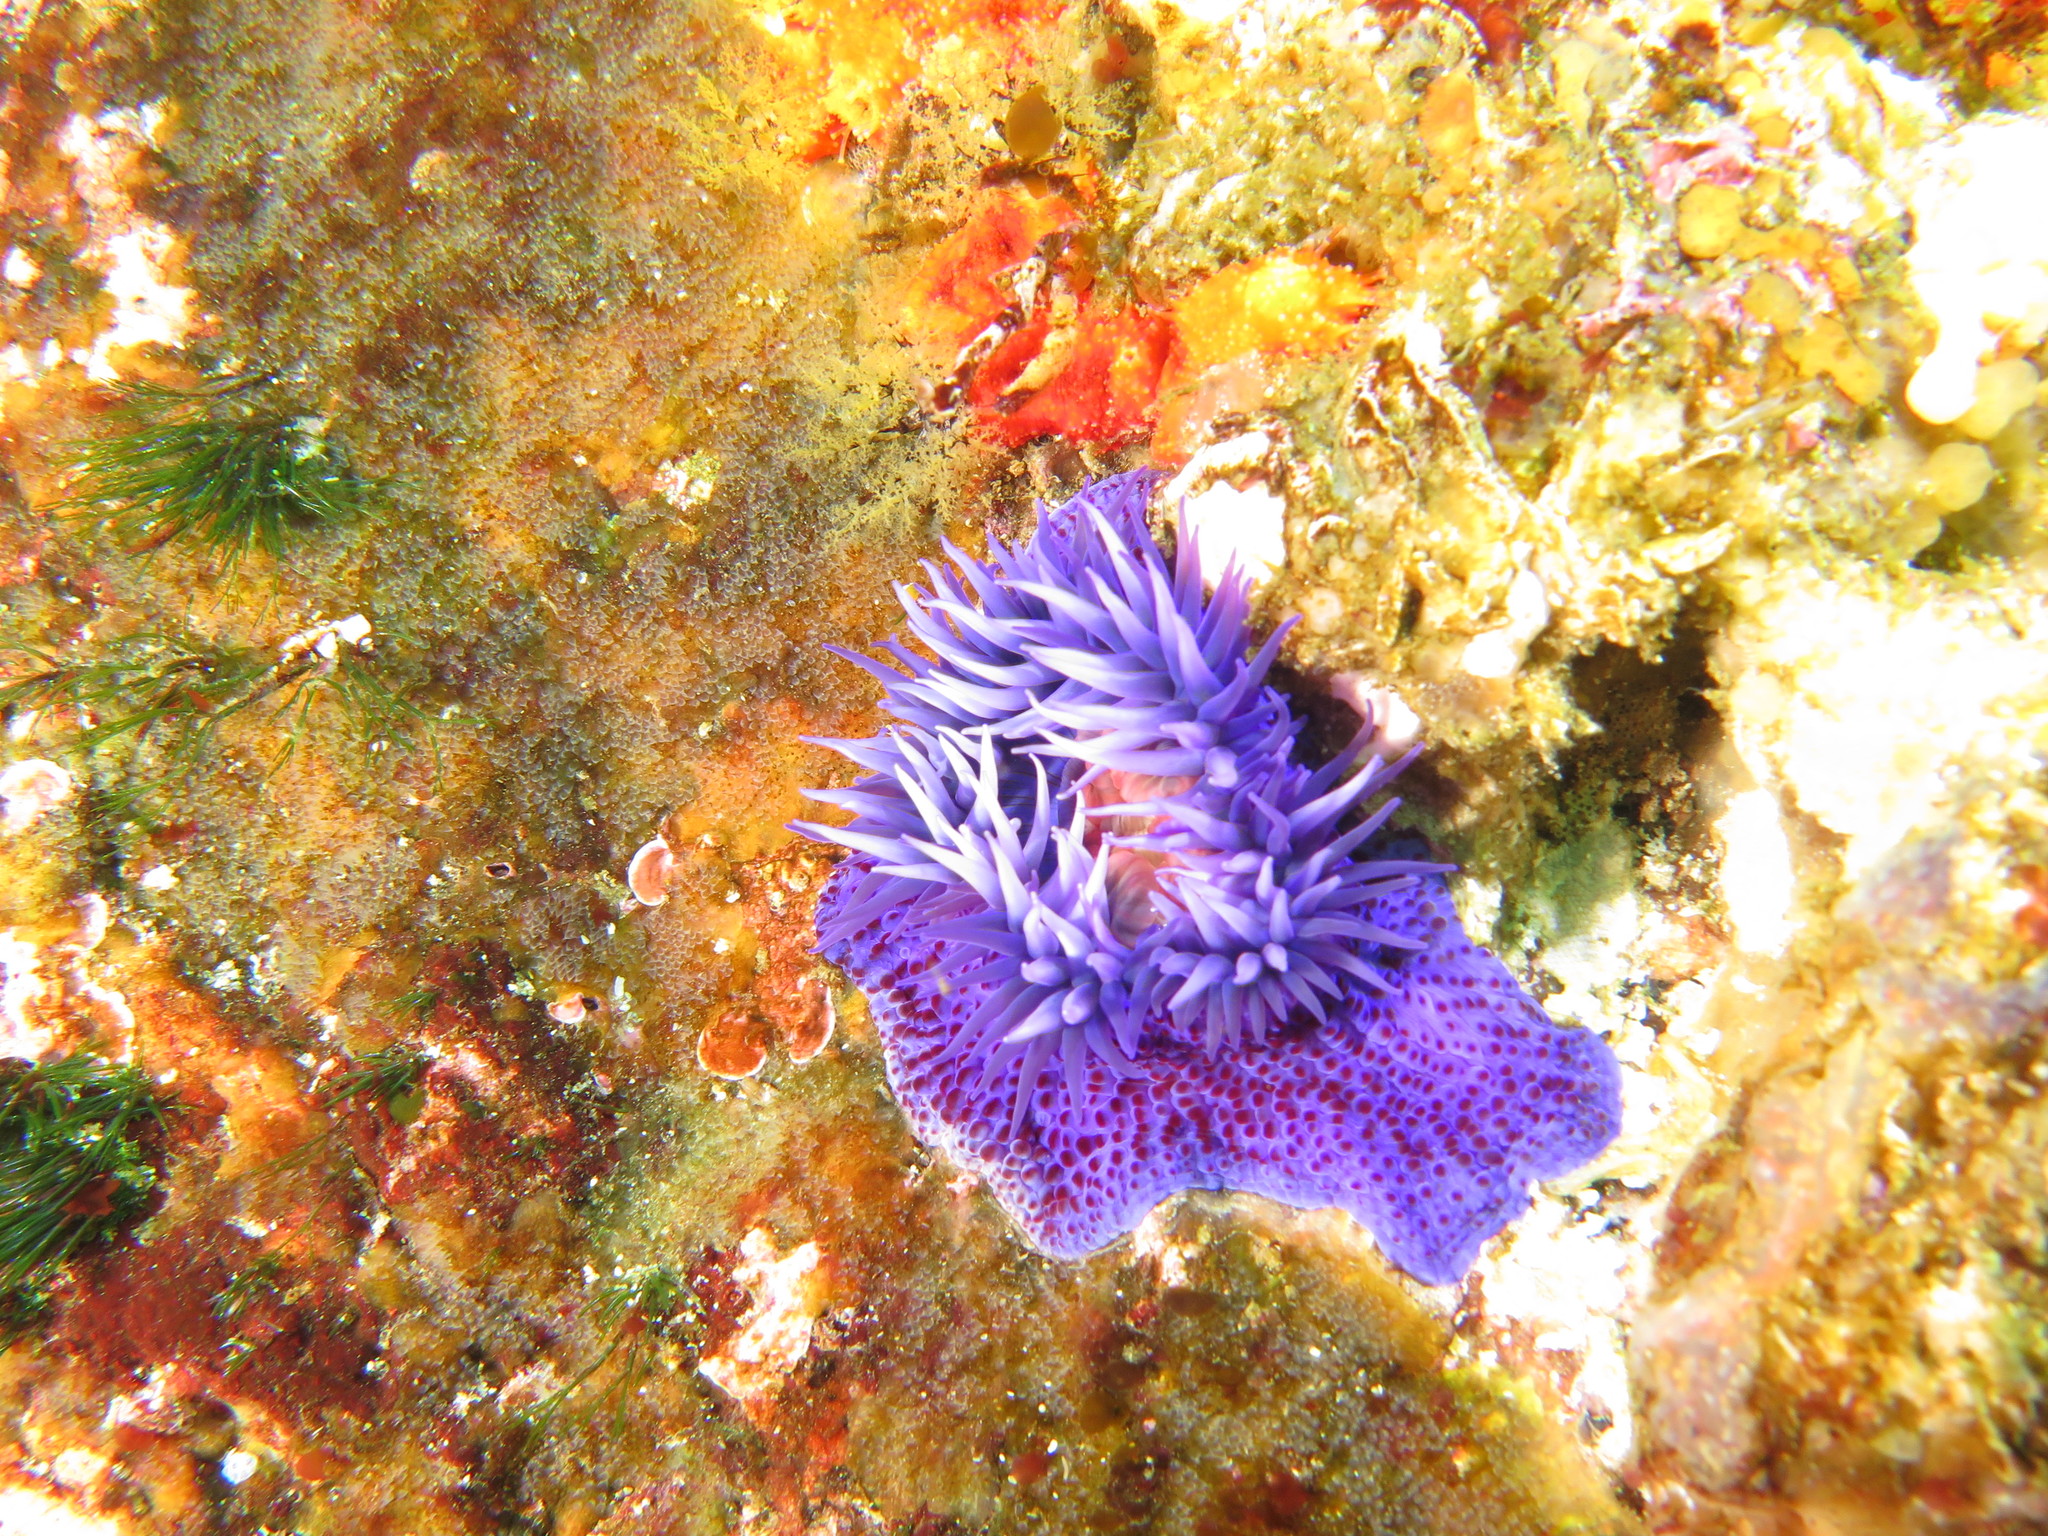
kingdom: Animalia
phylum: Cnidaria
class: Anthozoa
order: Actiniaria
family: Actiniidae
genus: Bunodosoma
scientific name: Bunodosoma capense
